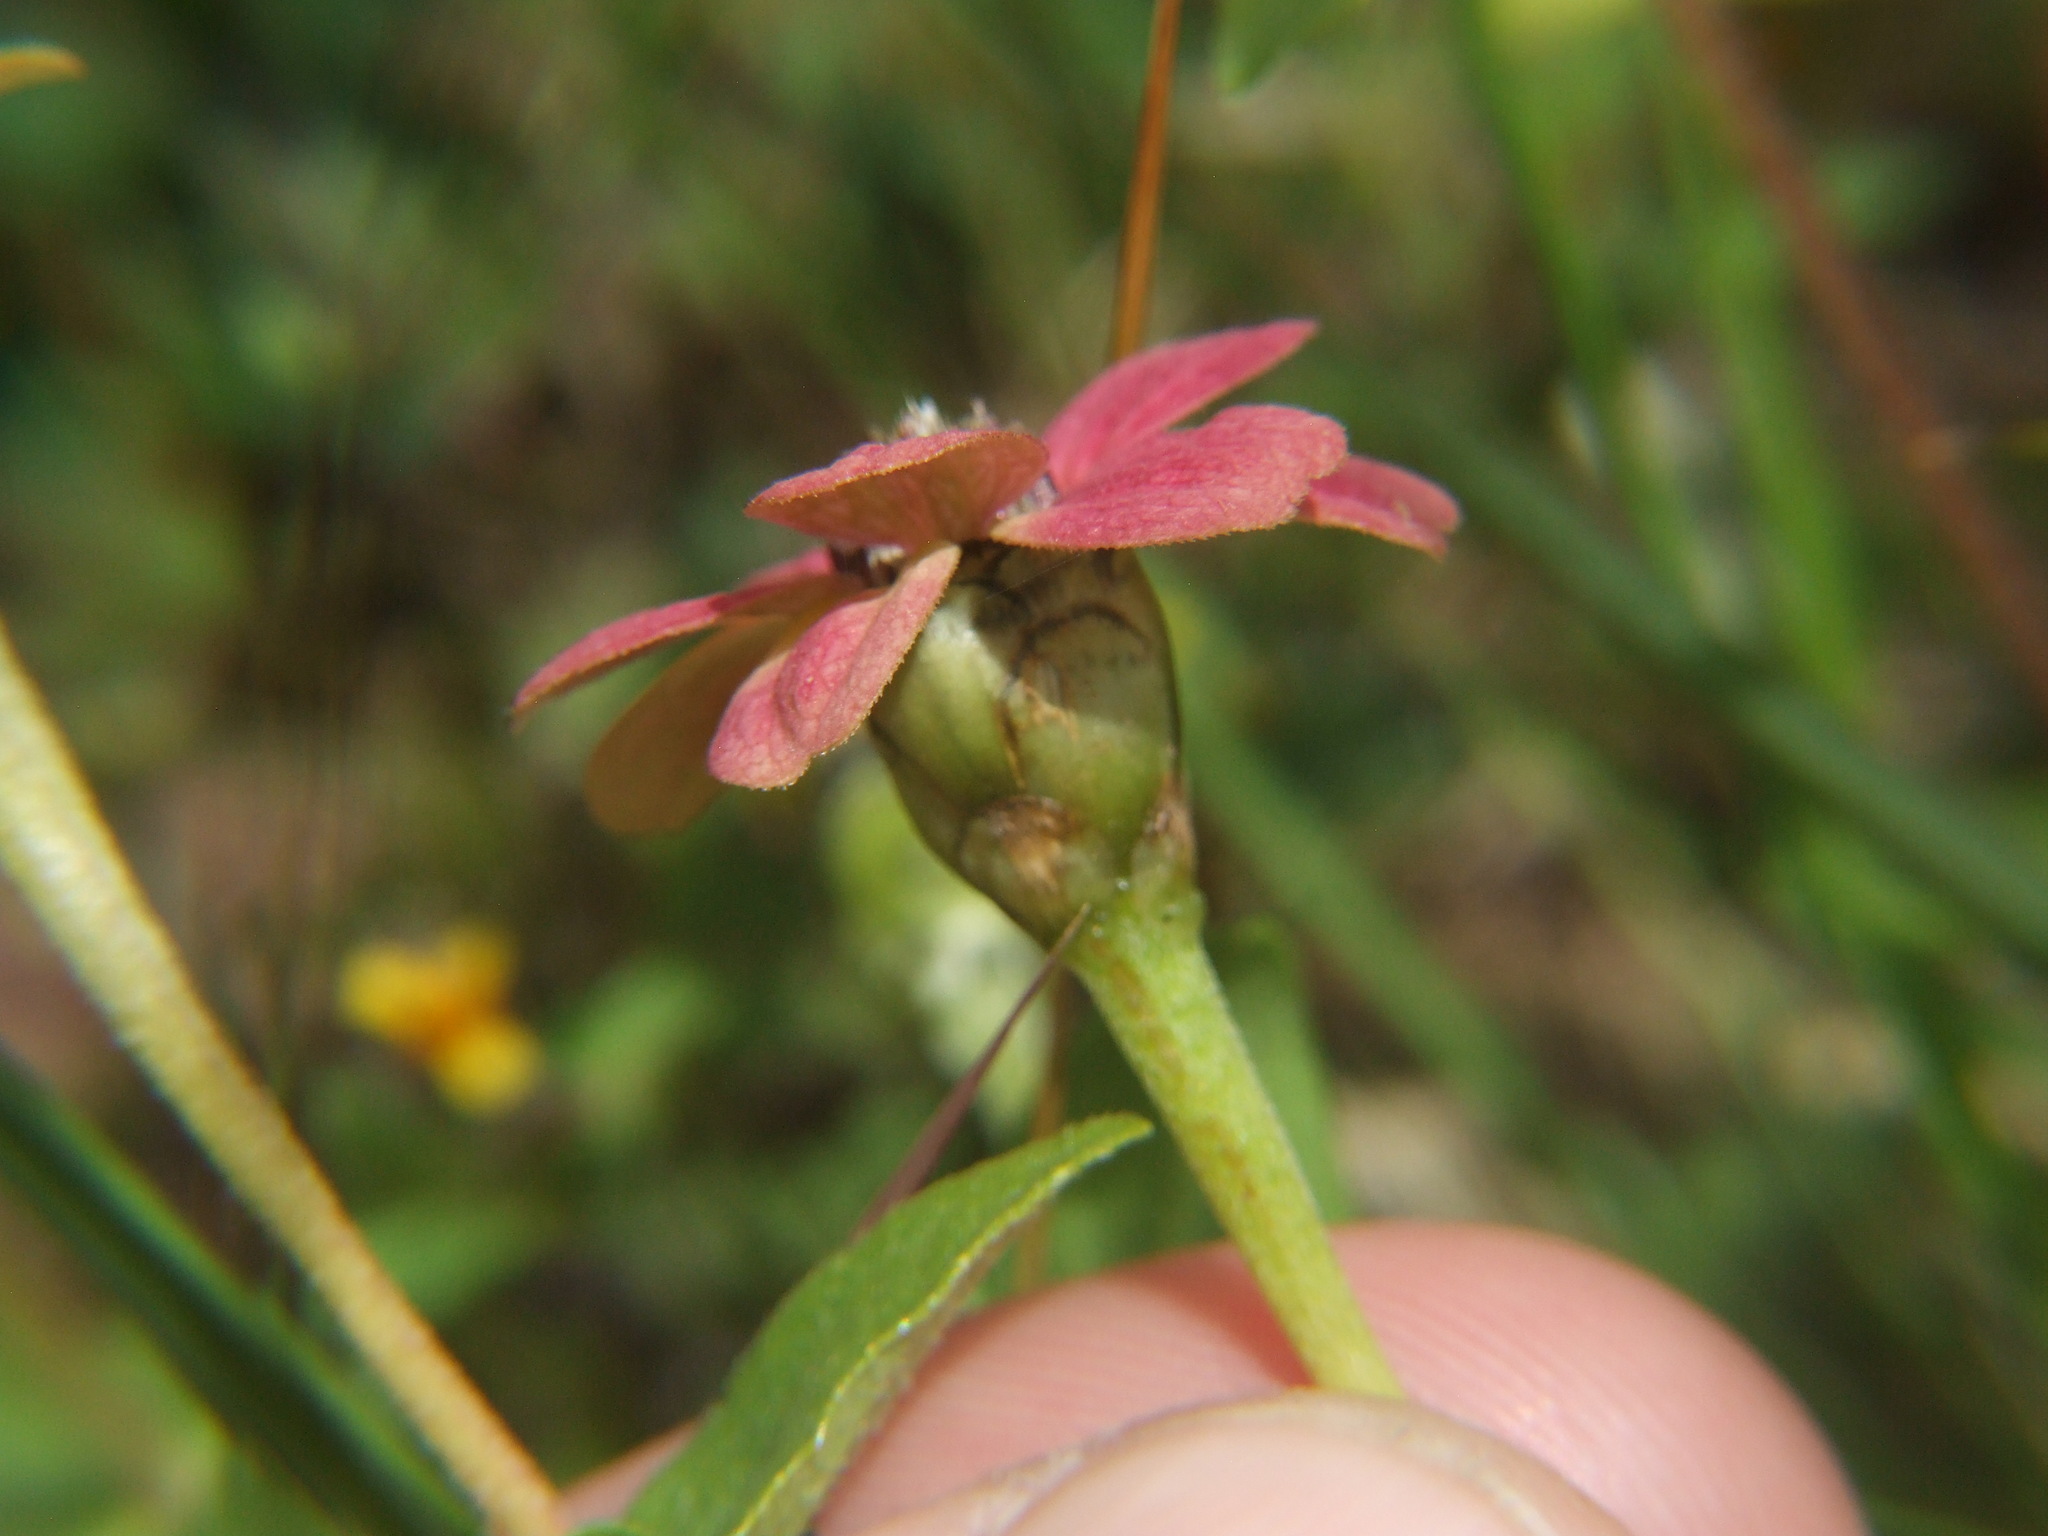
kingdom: Plantae
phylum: Tracheophyta
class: Magnoliopsida
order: Asterales
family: Asteraceae
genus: Zinnia
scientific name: Zinnia peruviana
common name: Peruvian zinnia
